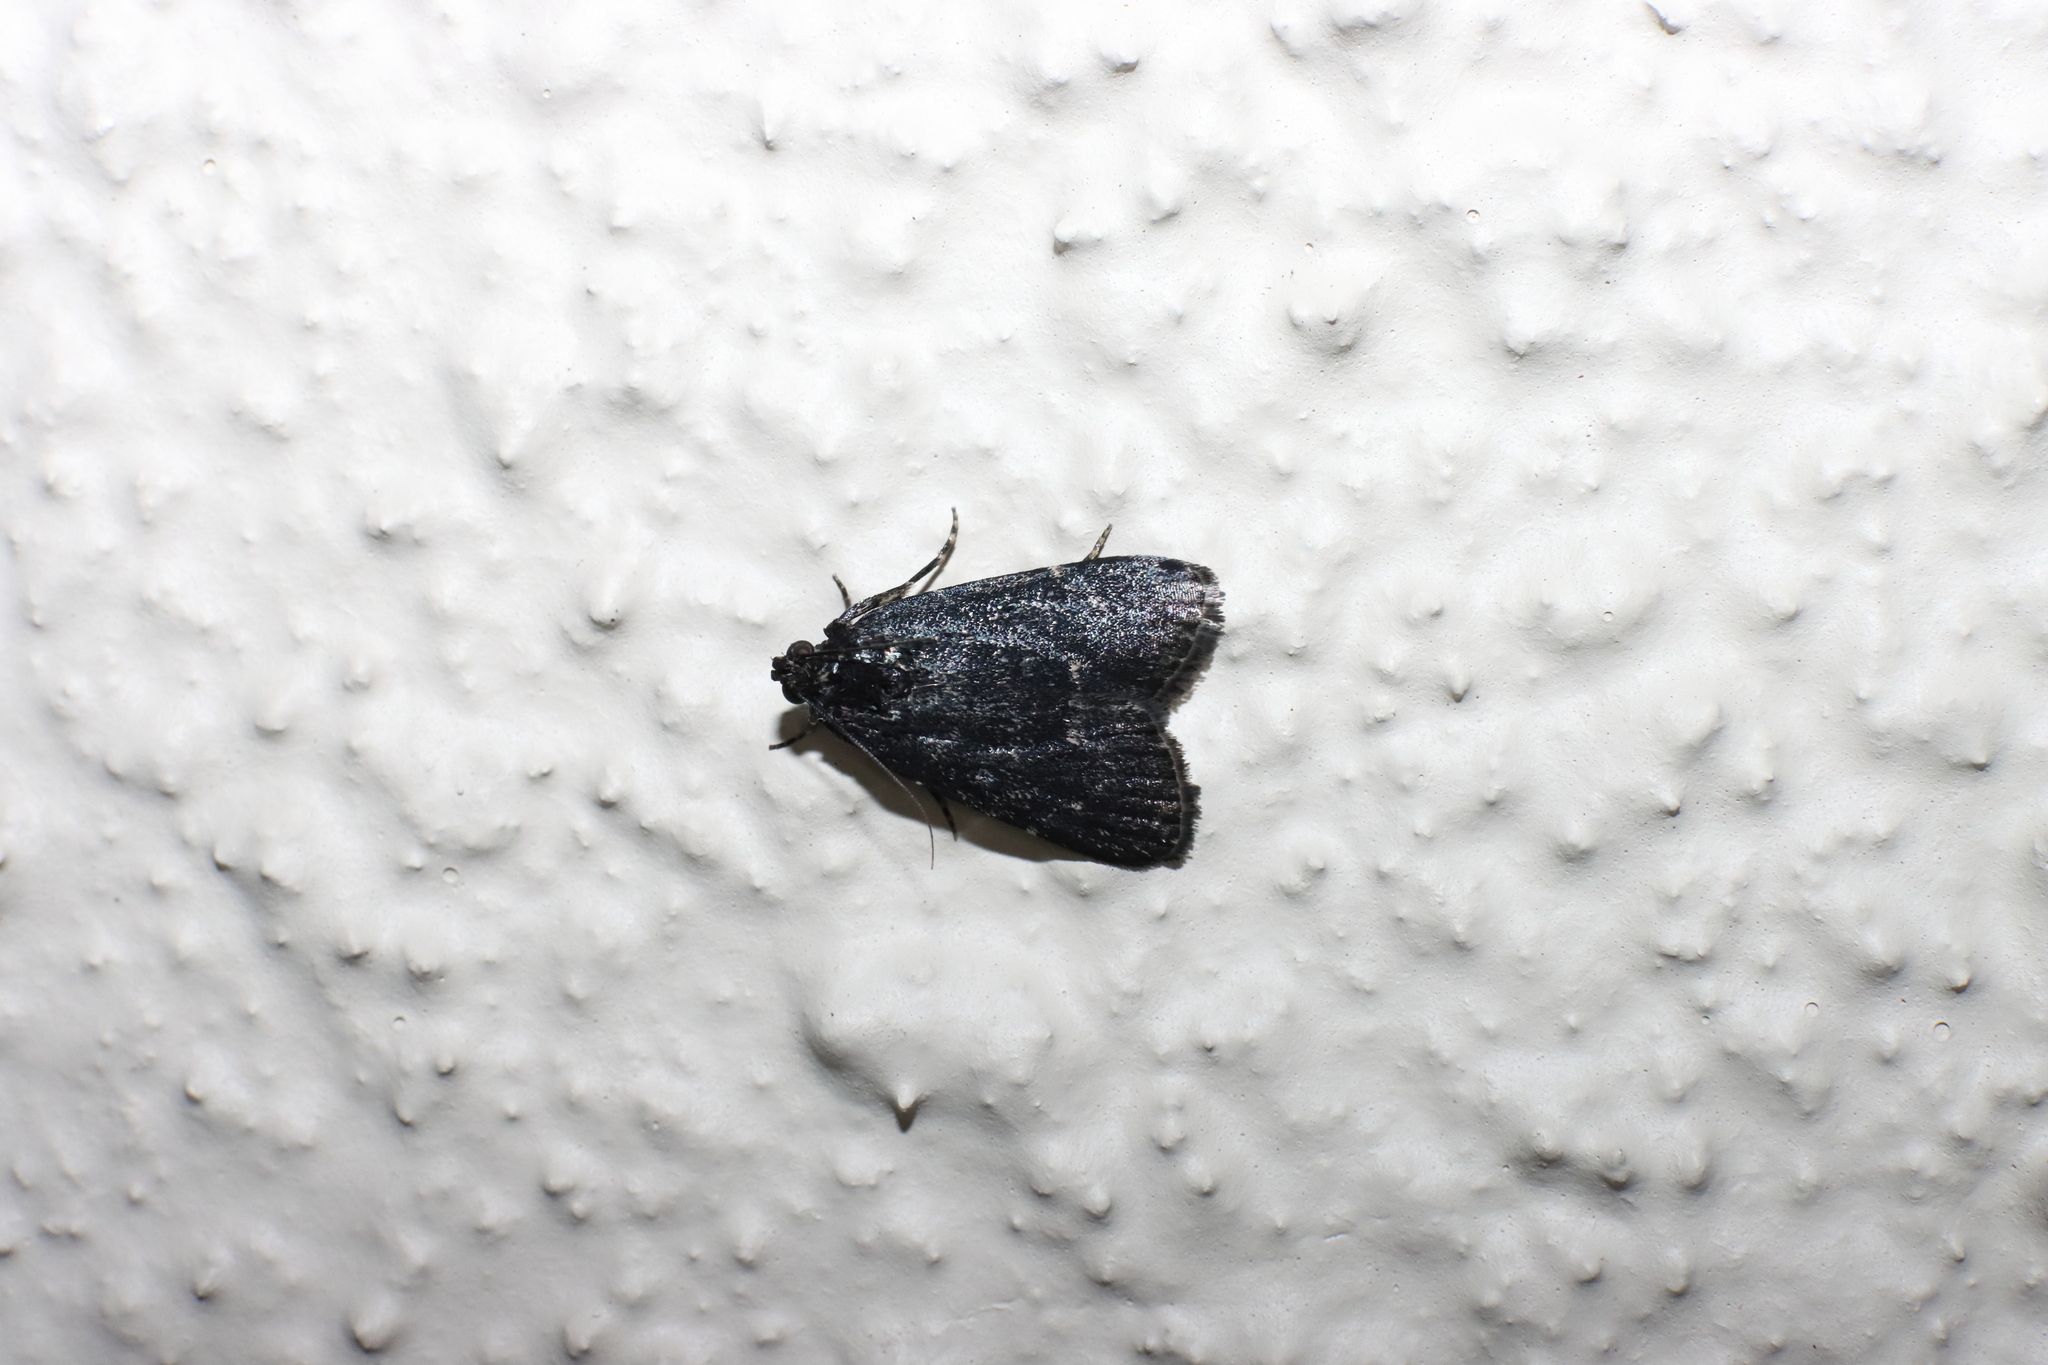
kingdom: Animalia
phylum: Arthropoda
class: Insecta
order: Lepidoptera
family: Pyralidae
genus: Stericta
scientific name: Stericta carbonalis
